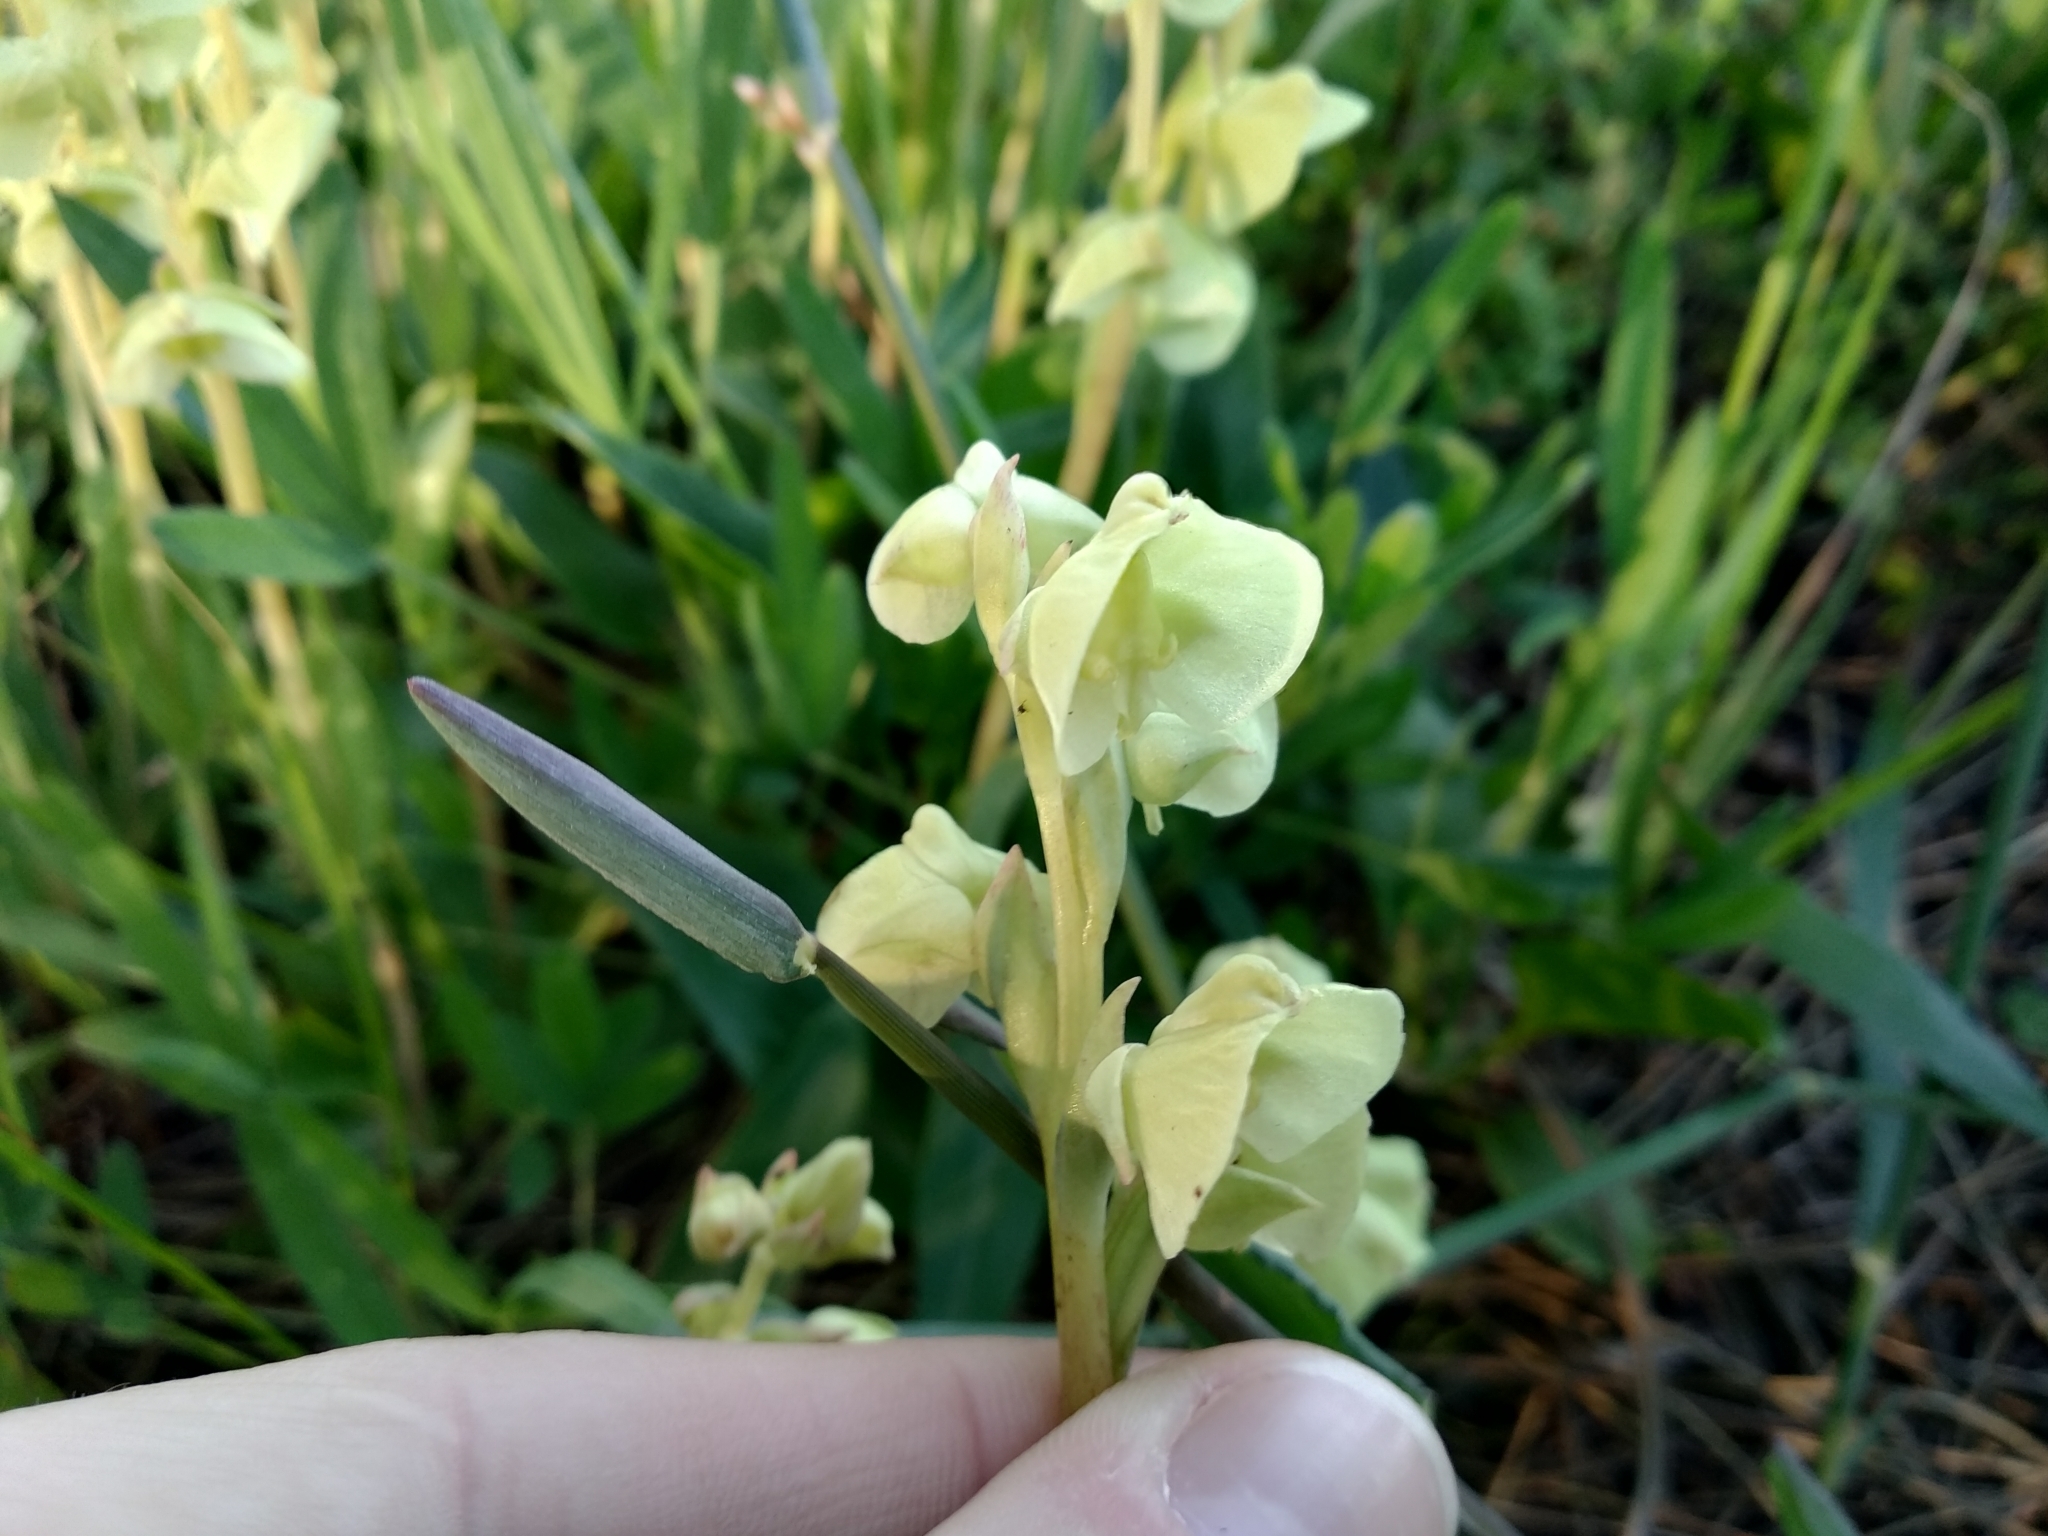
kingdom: Plantae
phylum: Tracheophyta
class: Liliopsida
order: Asparagales
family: Orchidaceae
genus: Pterygodium
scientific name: Pterygodium catholicum
